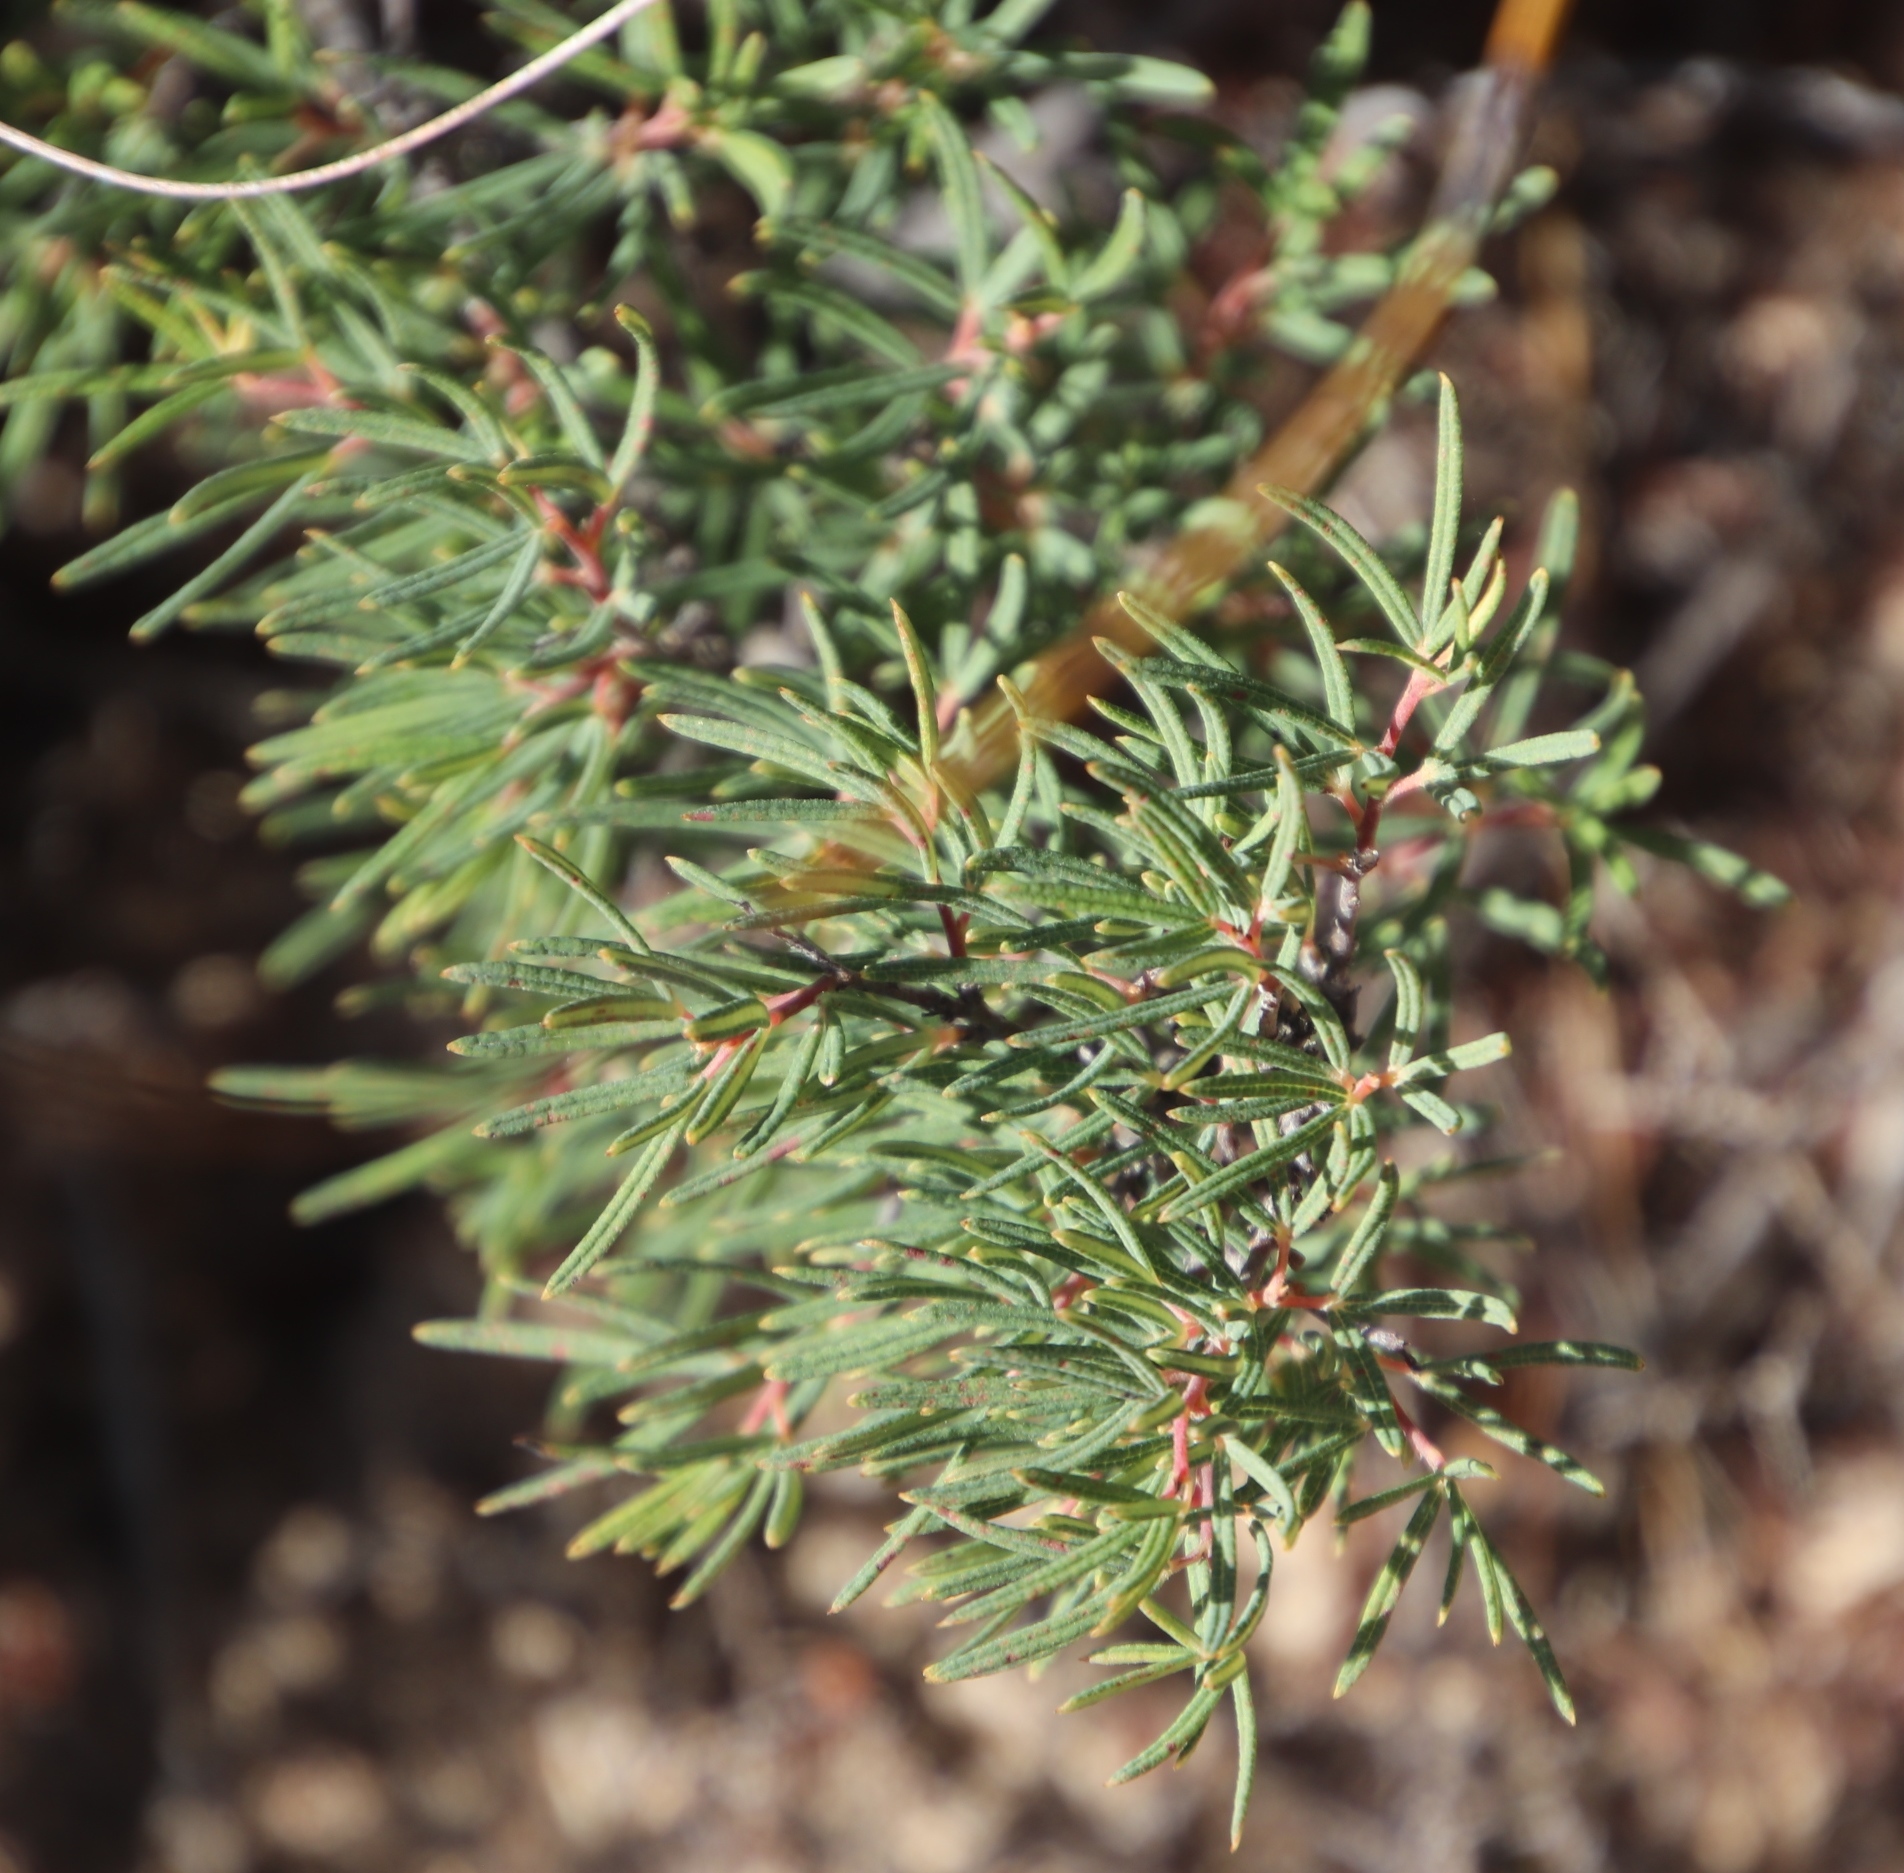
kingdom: Plantae
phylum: Tracheophyta
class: Magnoliopsida
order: Sapindales
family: Anacardiaceae
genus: Searsia
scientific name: Searsia rosmarinifolia
